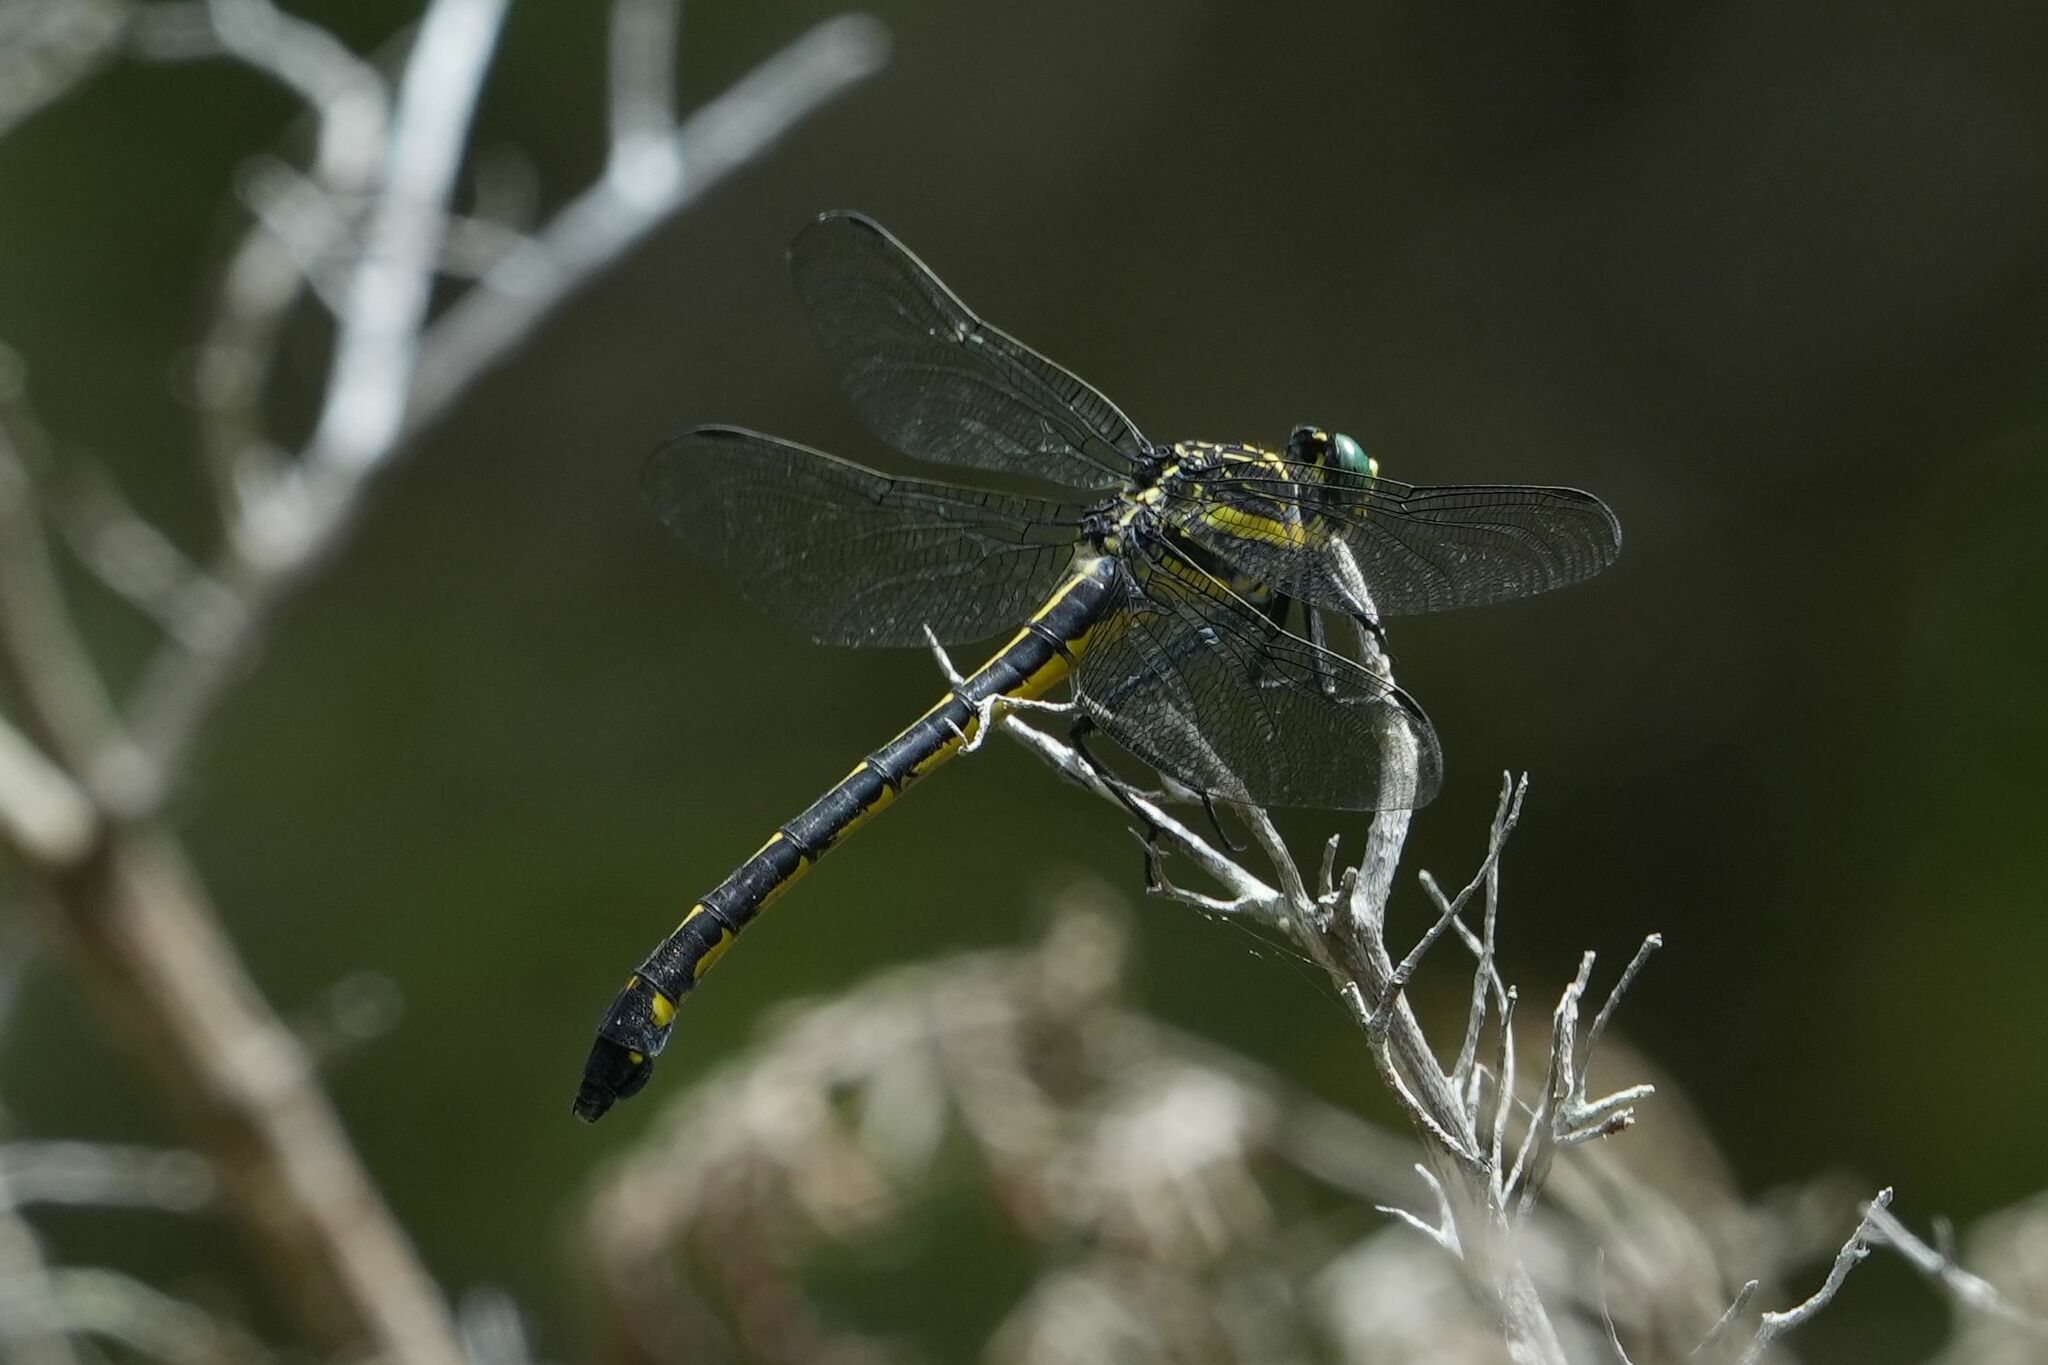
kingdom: Animalia
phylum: Arthropoda
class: Insecta
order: Odonata
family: Gomphidae
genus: Hagenius
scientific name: Hagenius brevistylus
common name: Dragonhunter
